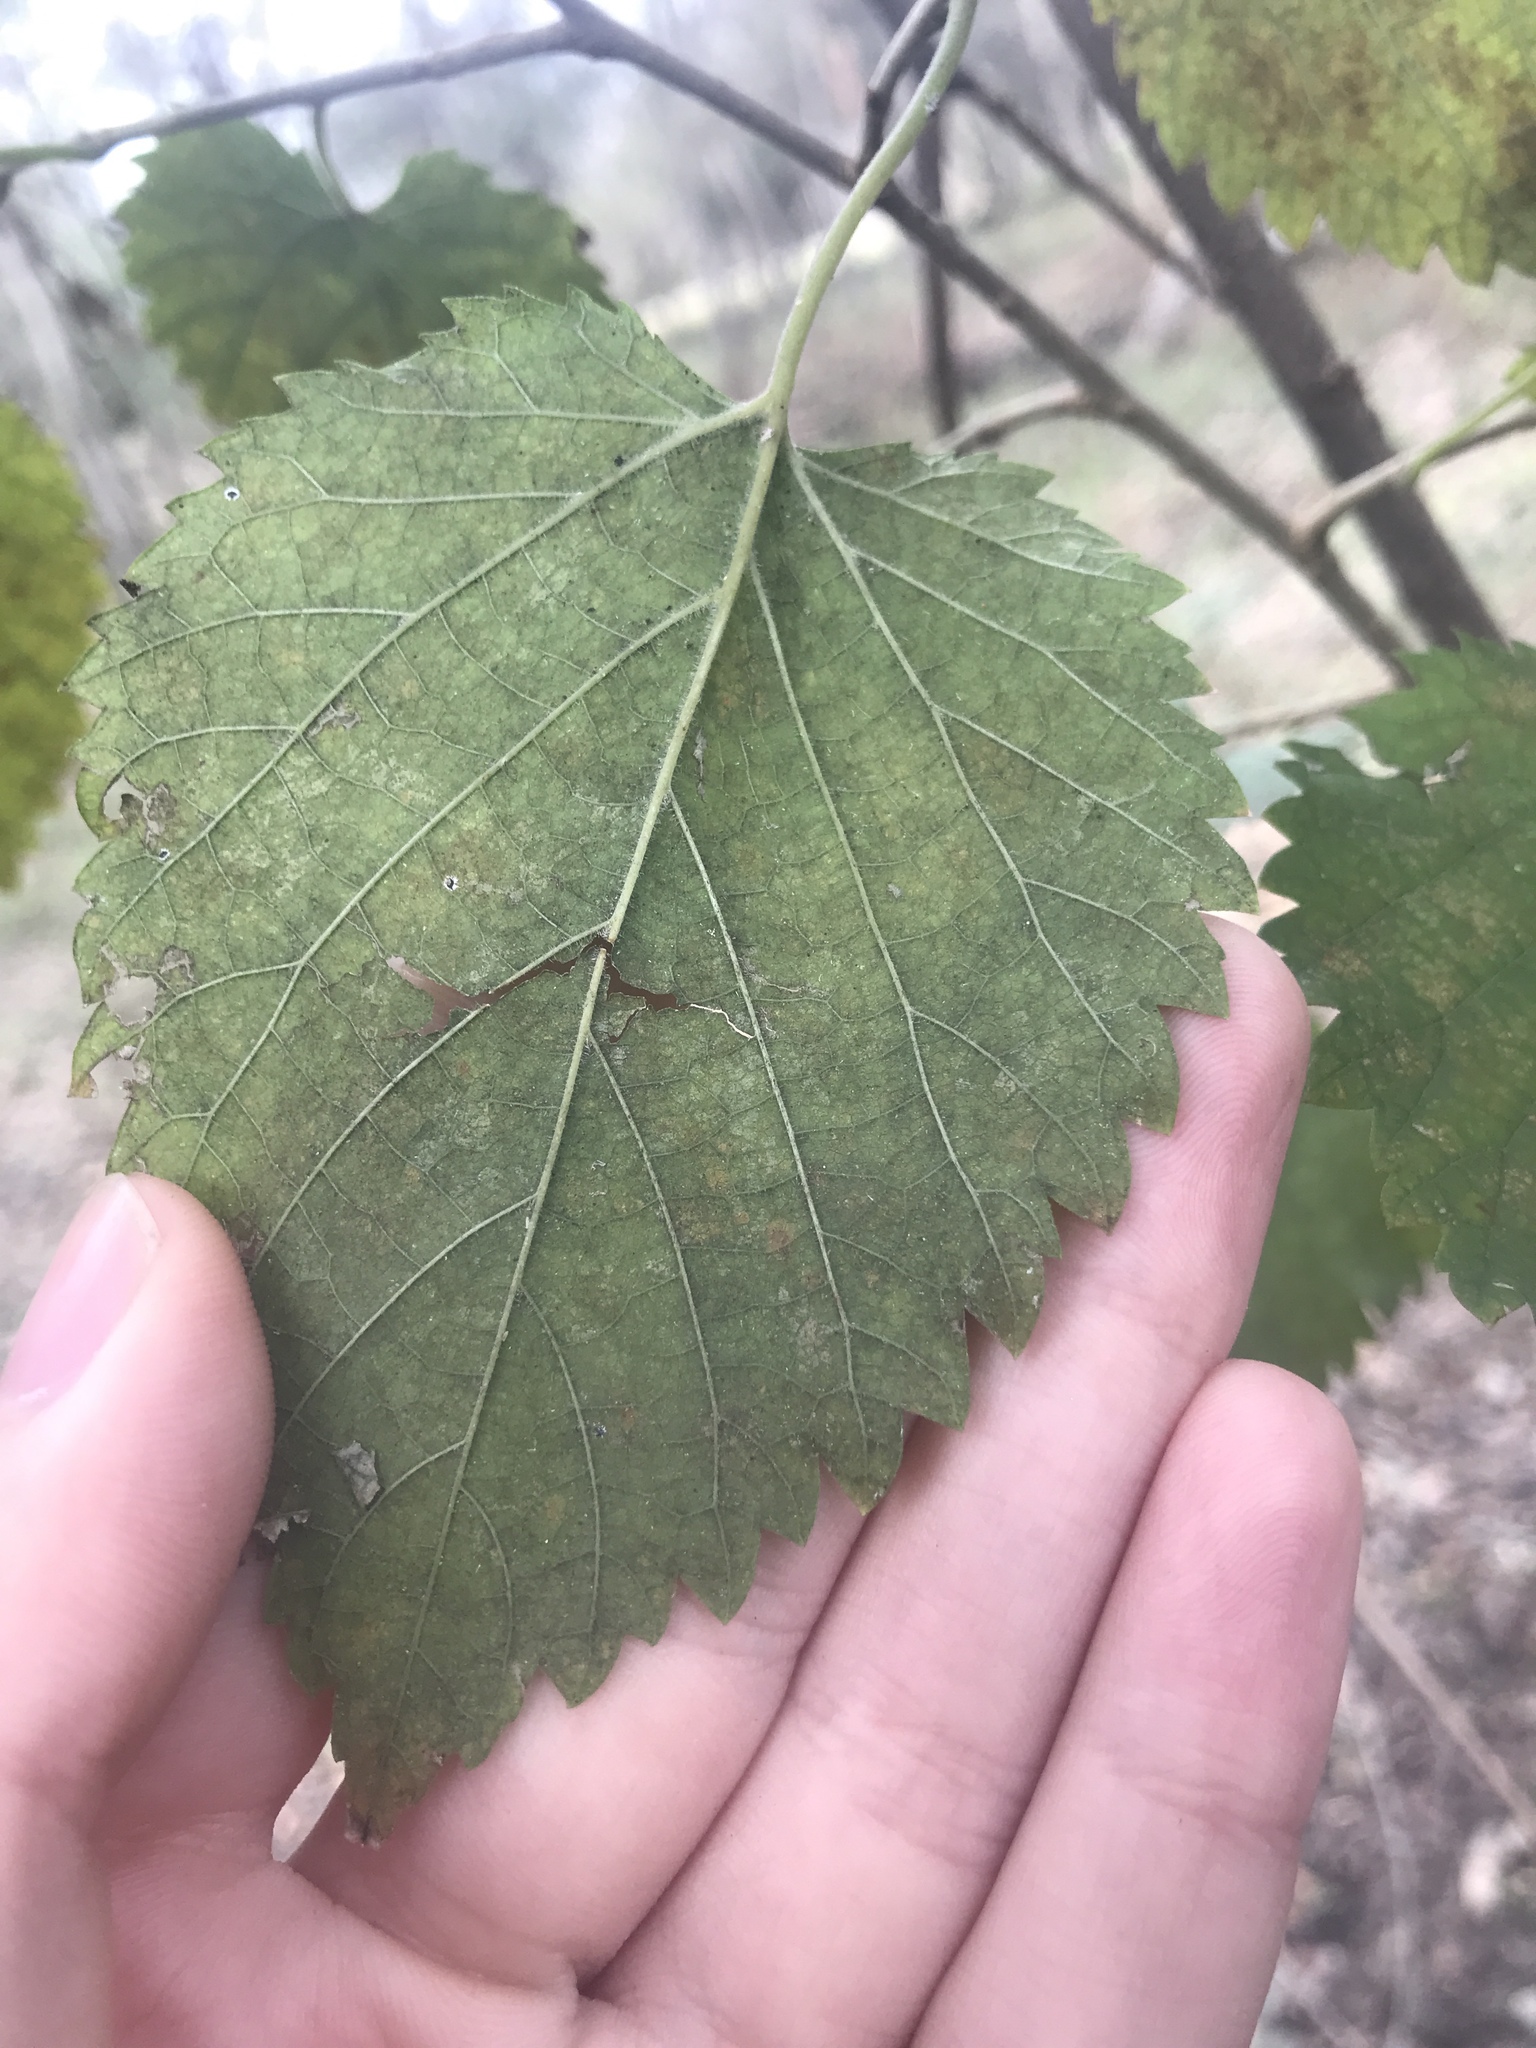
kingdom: Plantae
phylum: Tracheophyta
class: Magnoliopsida
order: Rosales
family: Moraceae
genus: Morus
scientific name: Morus alba
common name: White mulberry
